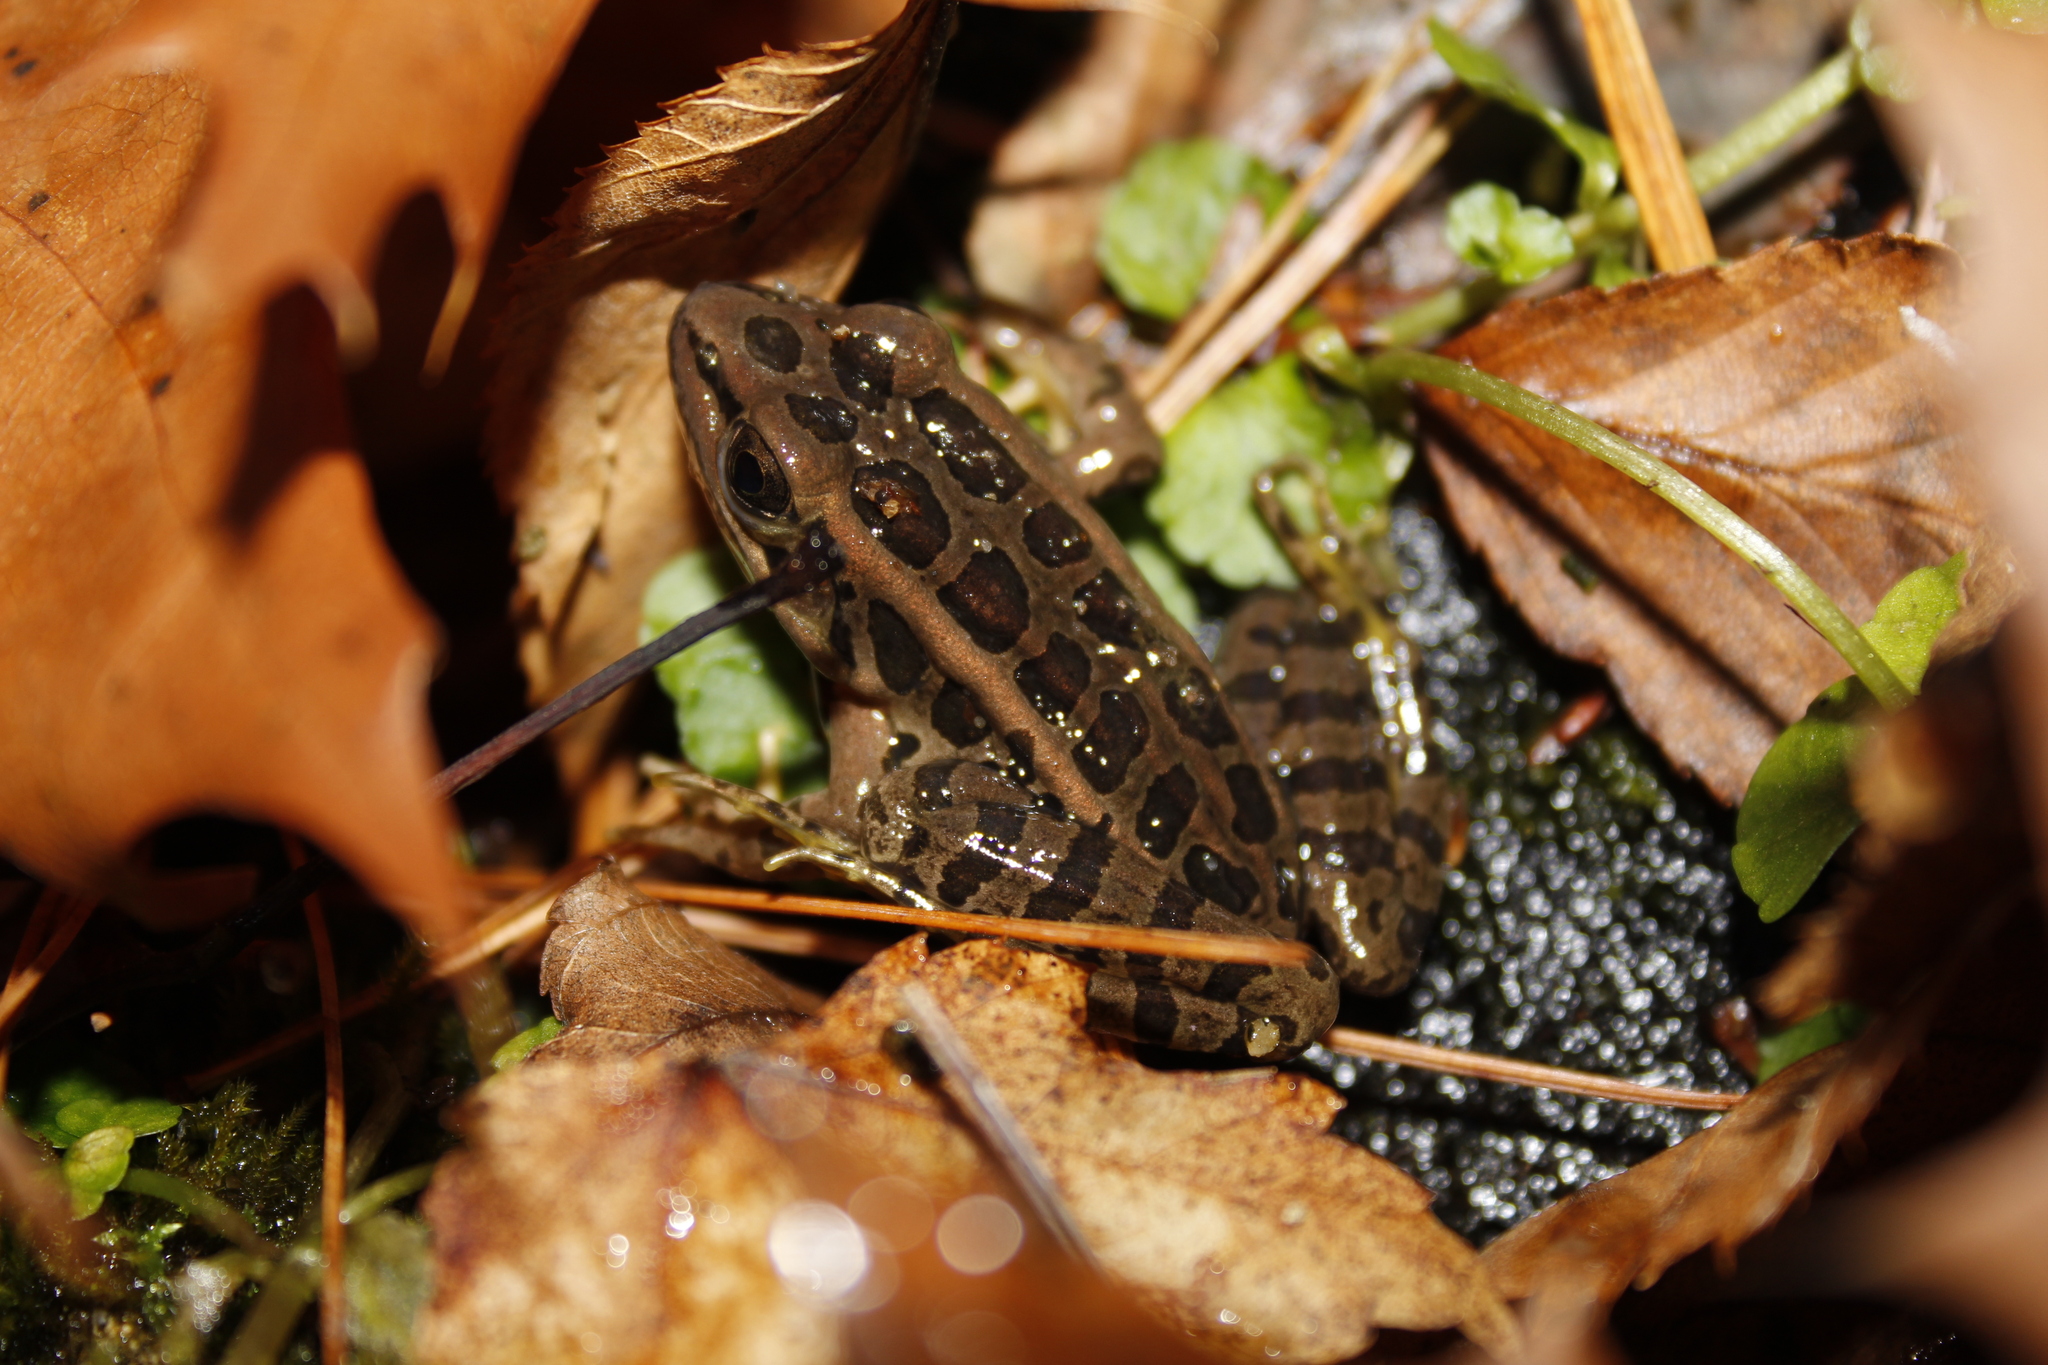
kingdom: Animalia
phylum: Chordata
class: Amphibia
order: Anura
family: Ranidae
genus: Lithobates
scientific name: Lithobates palustris
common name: Pickerel frog
